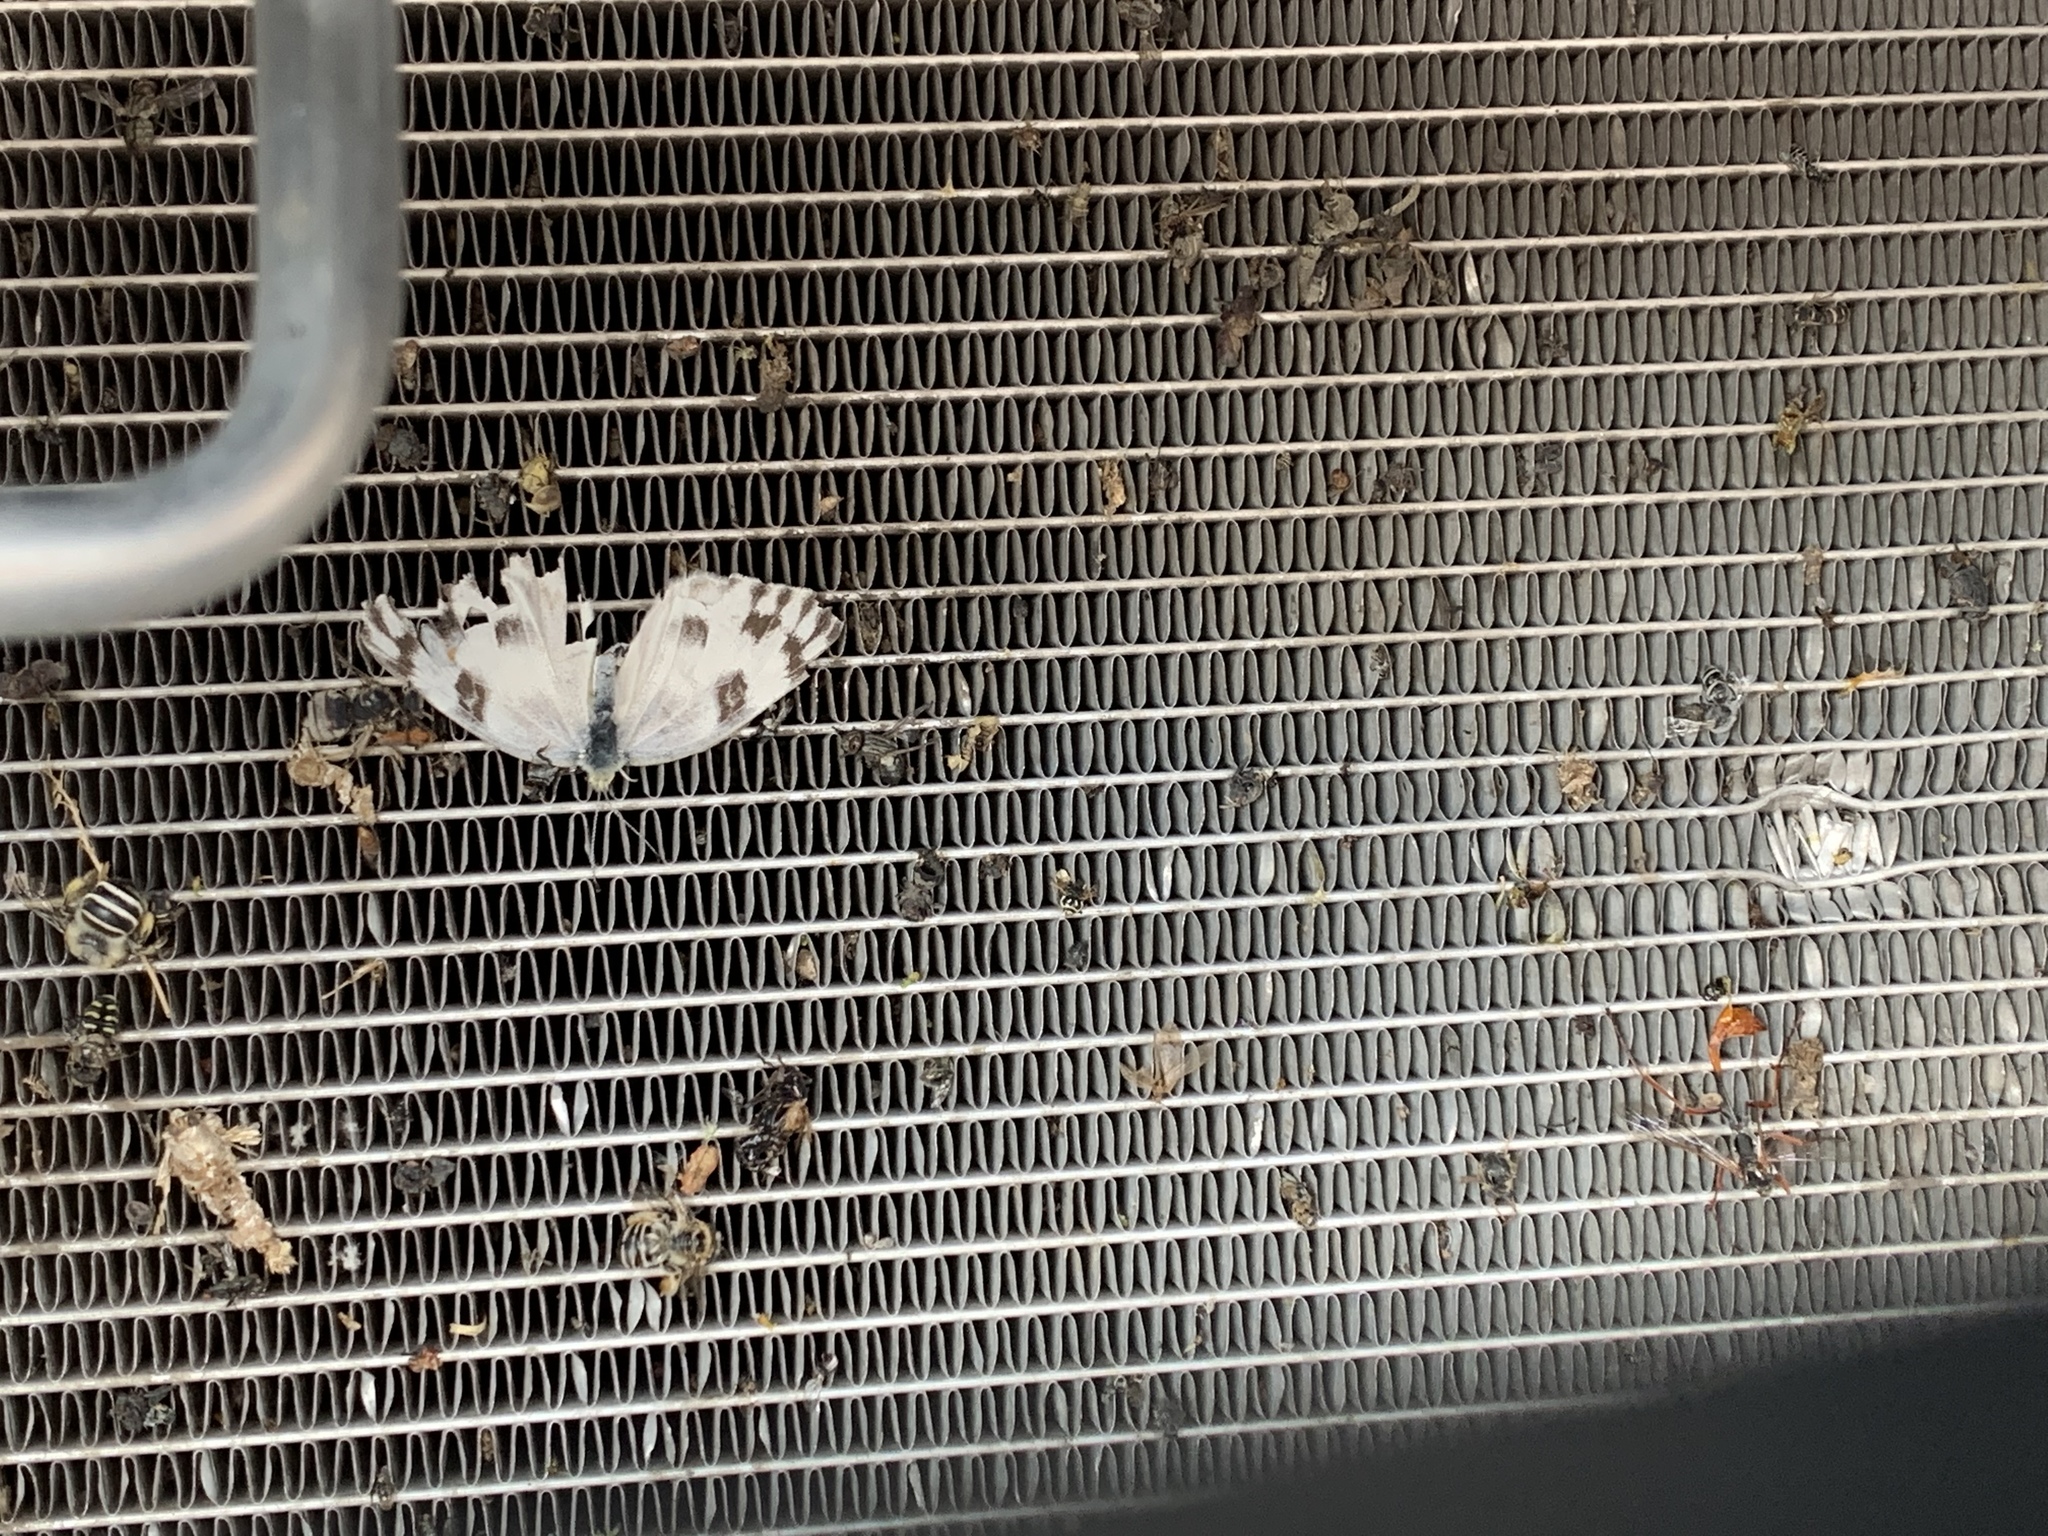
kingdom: Animalia
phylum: Arthropoda
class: Insecta
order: Lepidoptera
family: Pieridae
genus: Pontia
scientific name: Pontia protodice
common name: Checkered white
